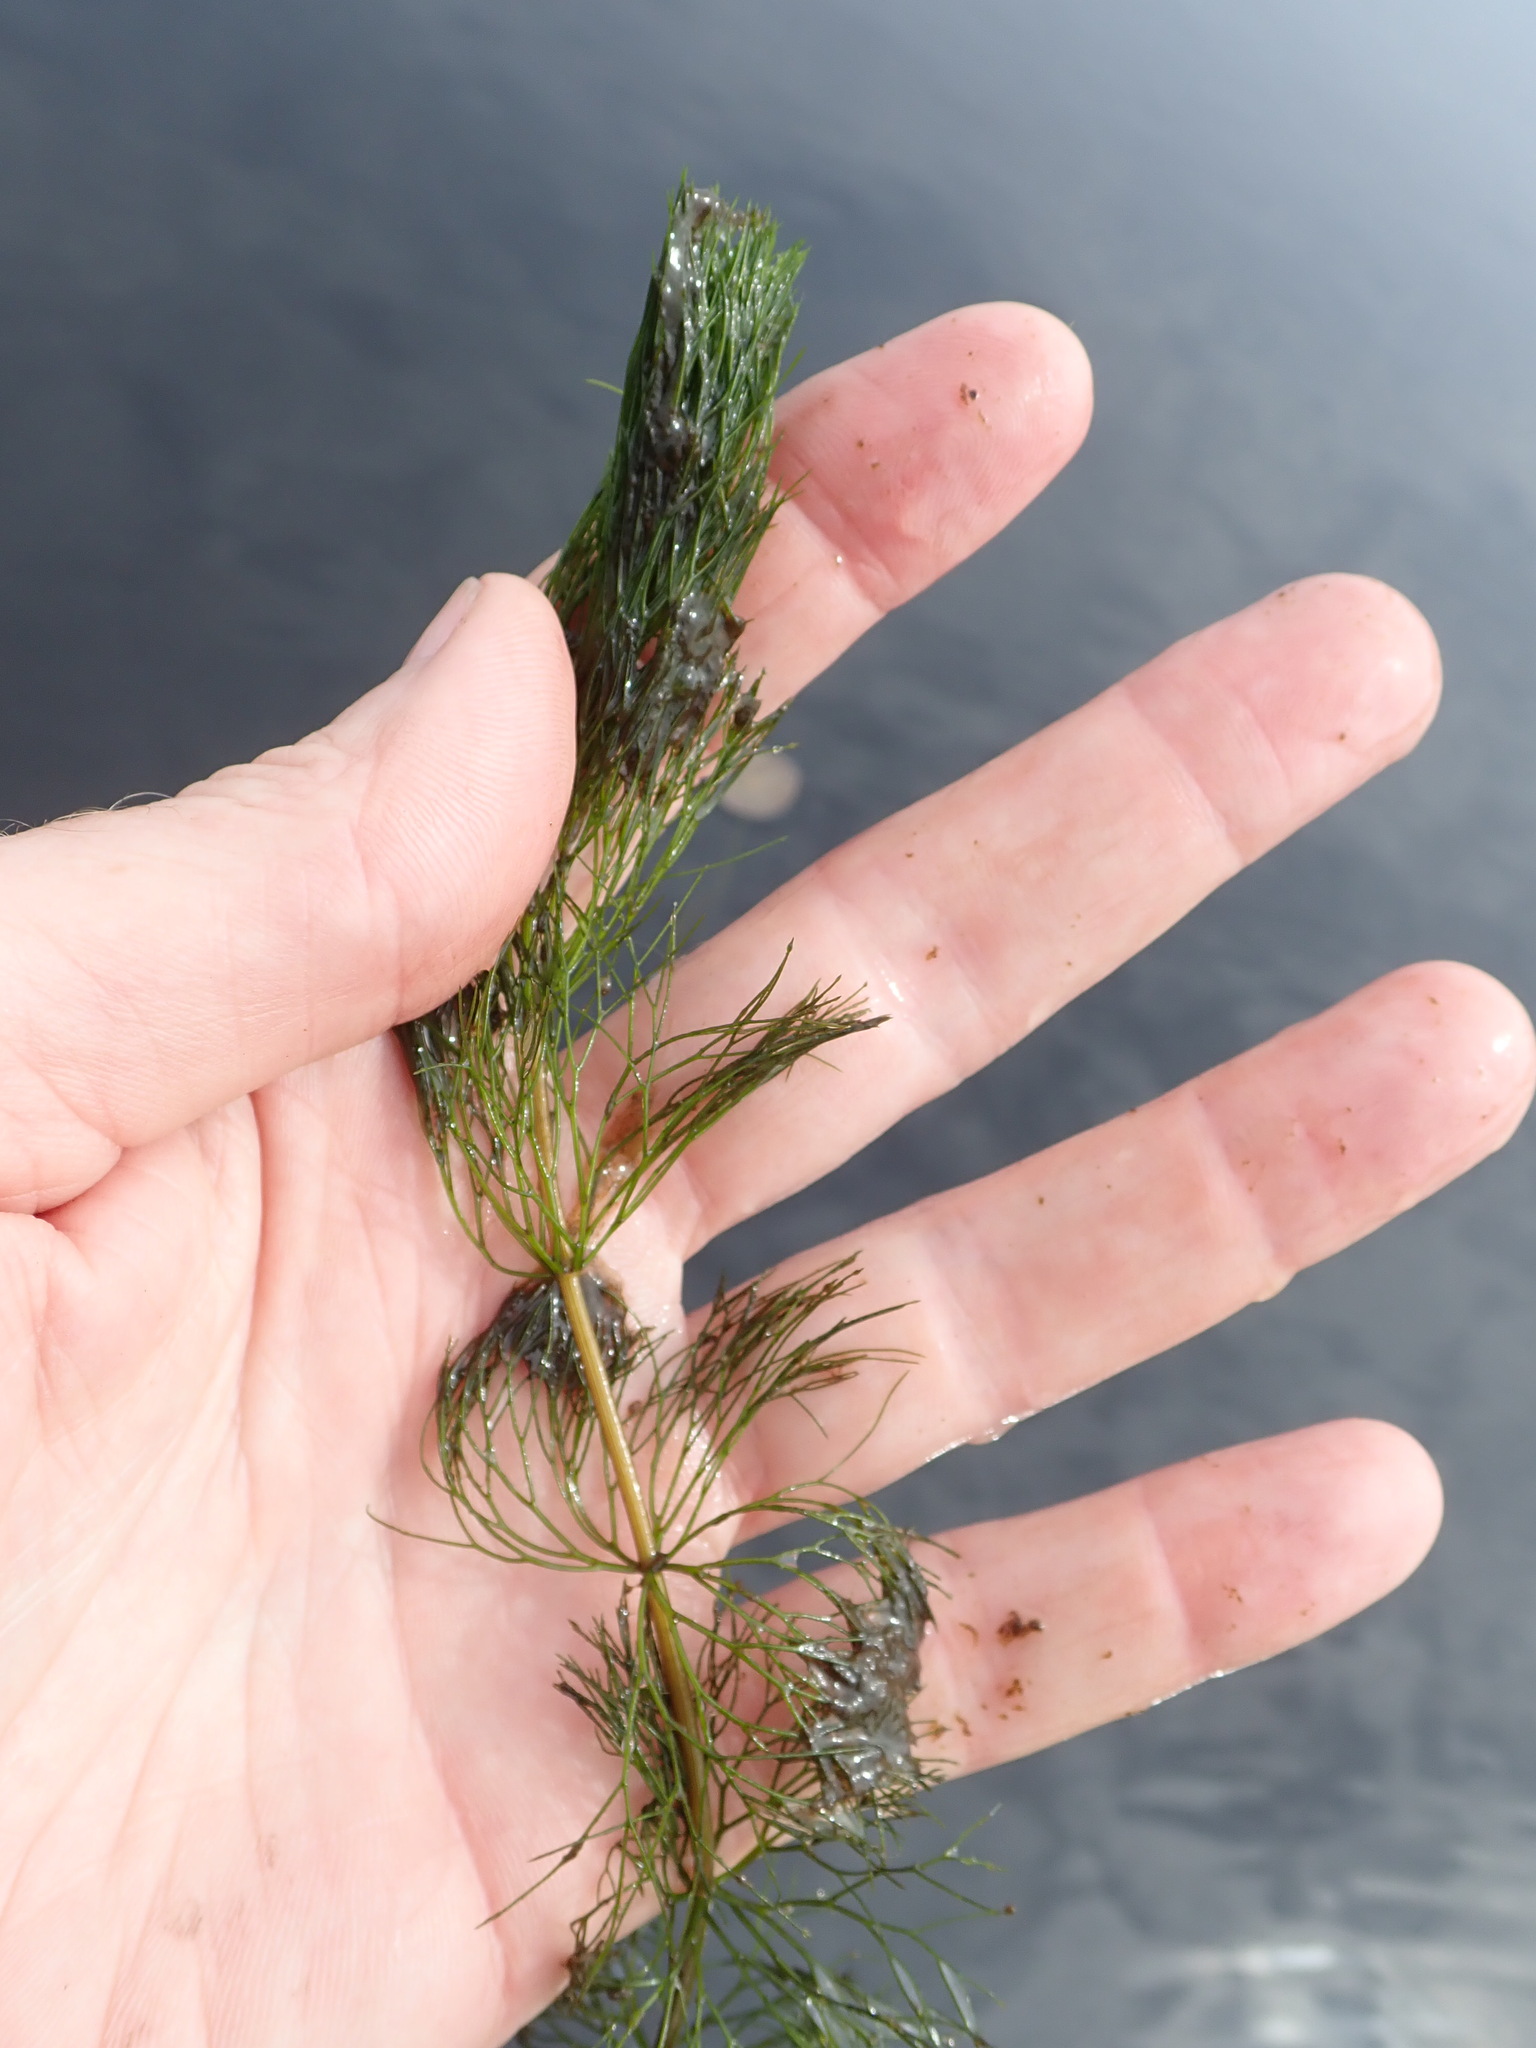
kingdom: Plantae
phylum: Tracheophyta
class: Magnoliopsida
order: Asterales
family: Asteraceae
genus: Bidens
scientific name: Bidens beckii
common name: Beck's beggarticks
